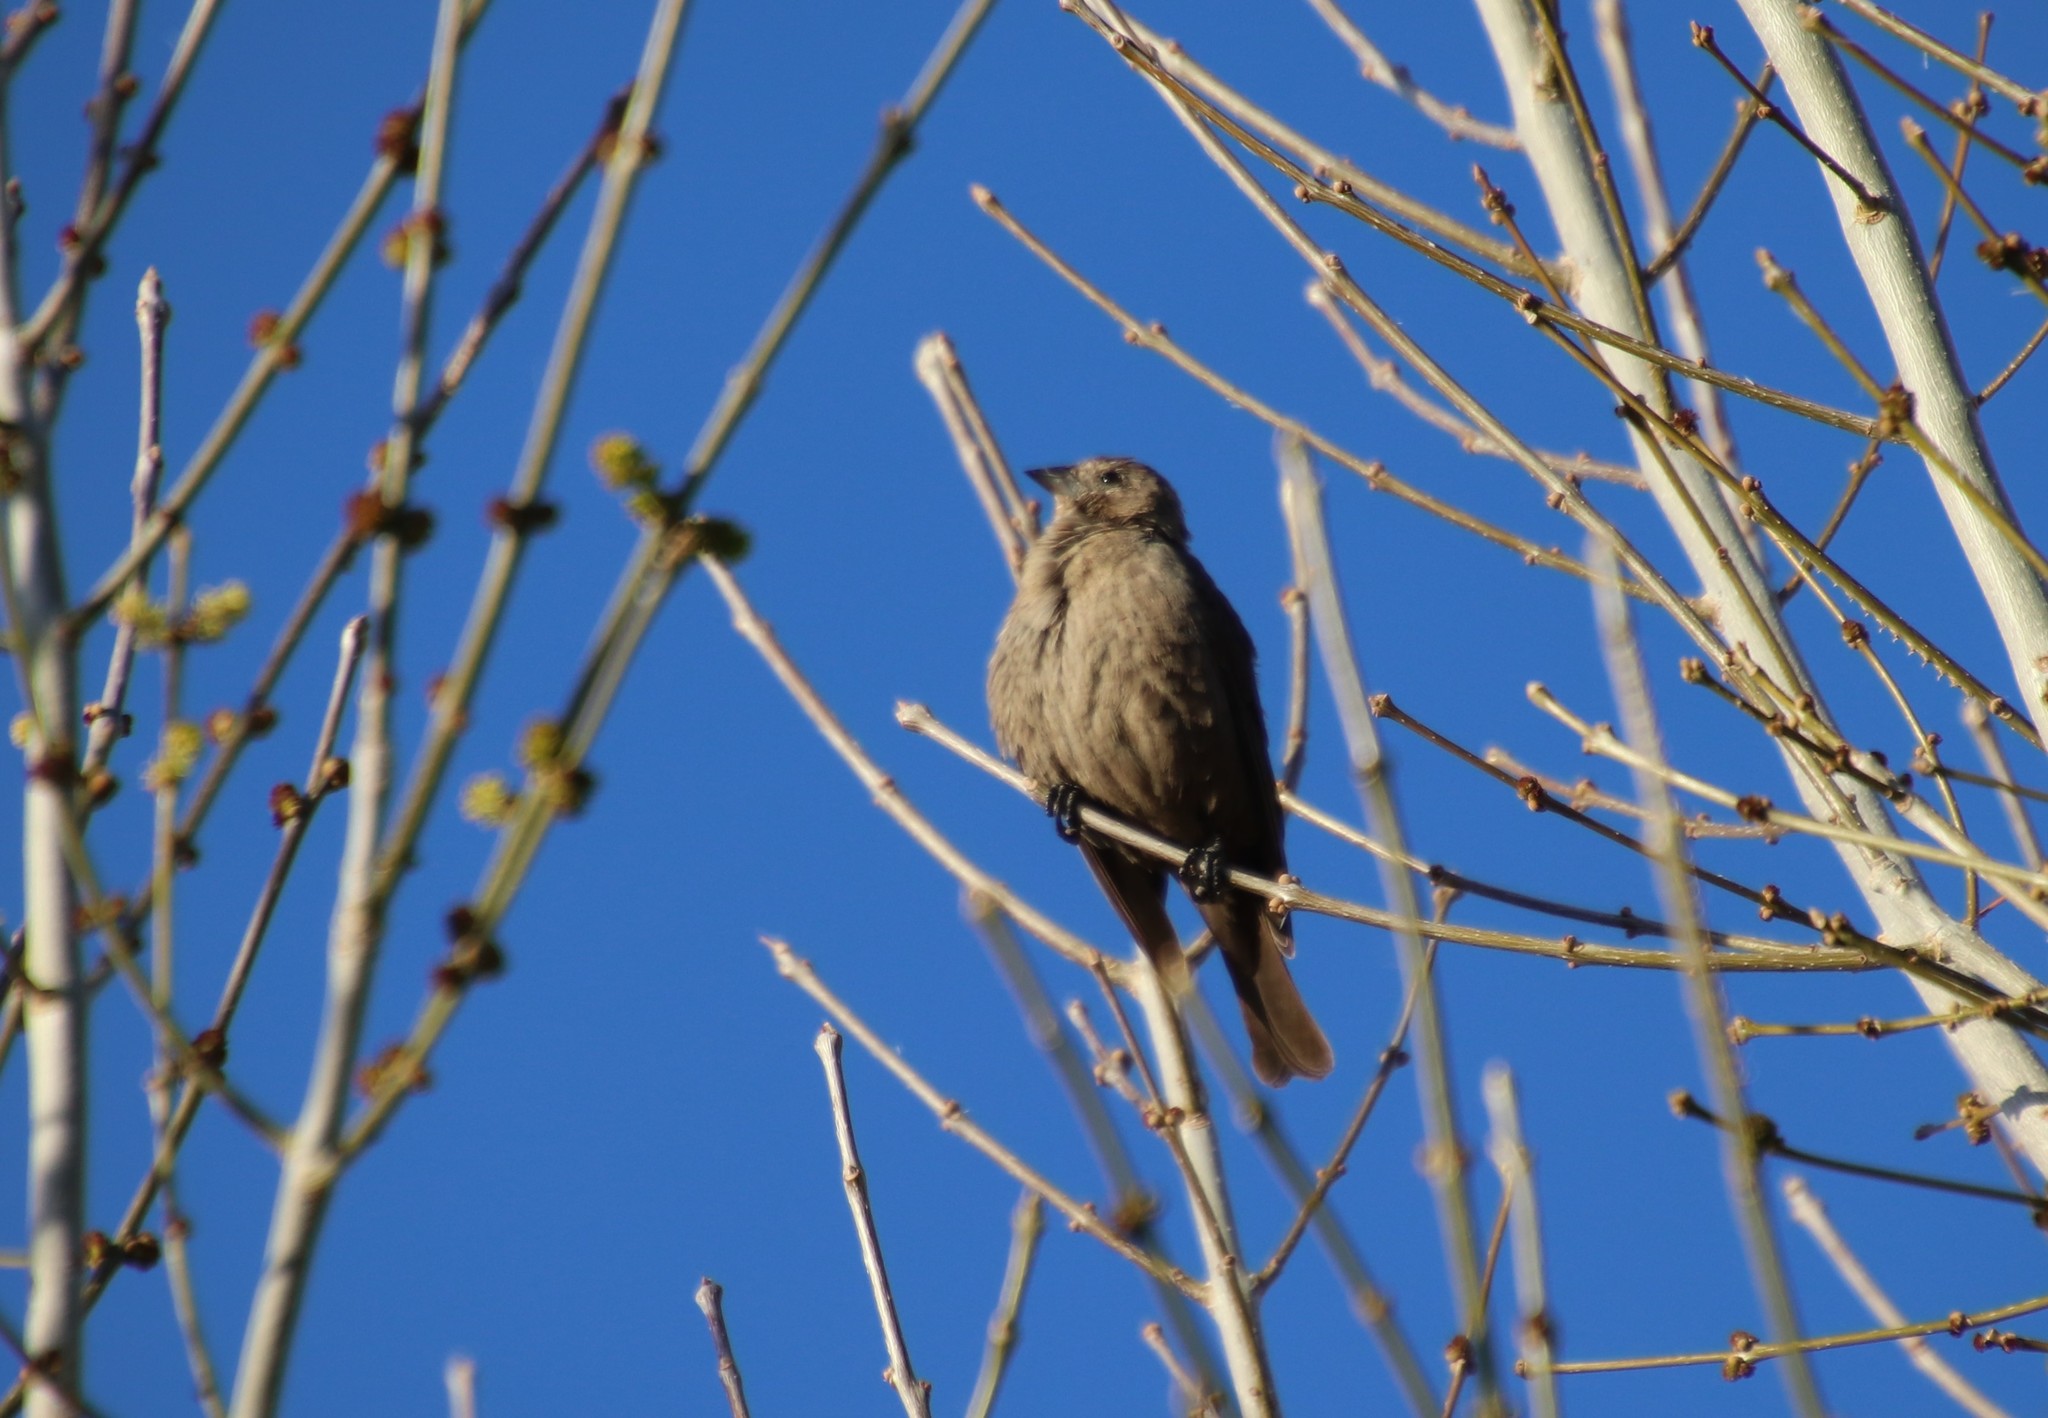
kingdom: Animalia
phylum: Chordata
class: Aves
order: Passeriformes
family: Icteridae
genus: Molothrus
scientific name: Molothrus ater
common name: Brown-headed cowbird
